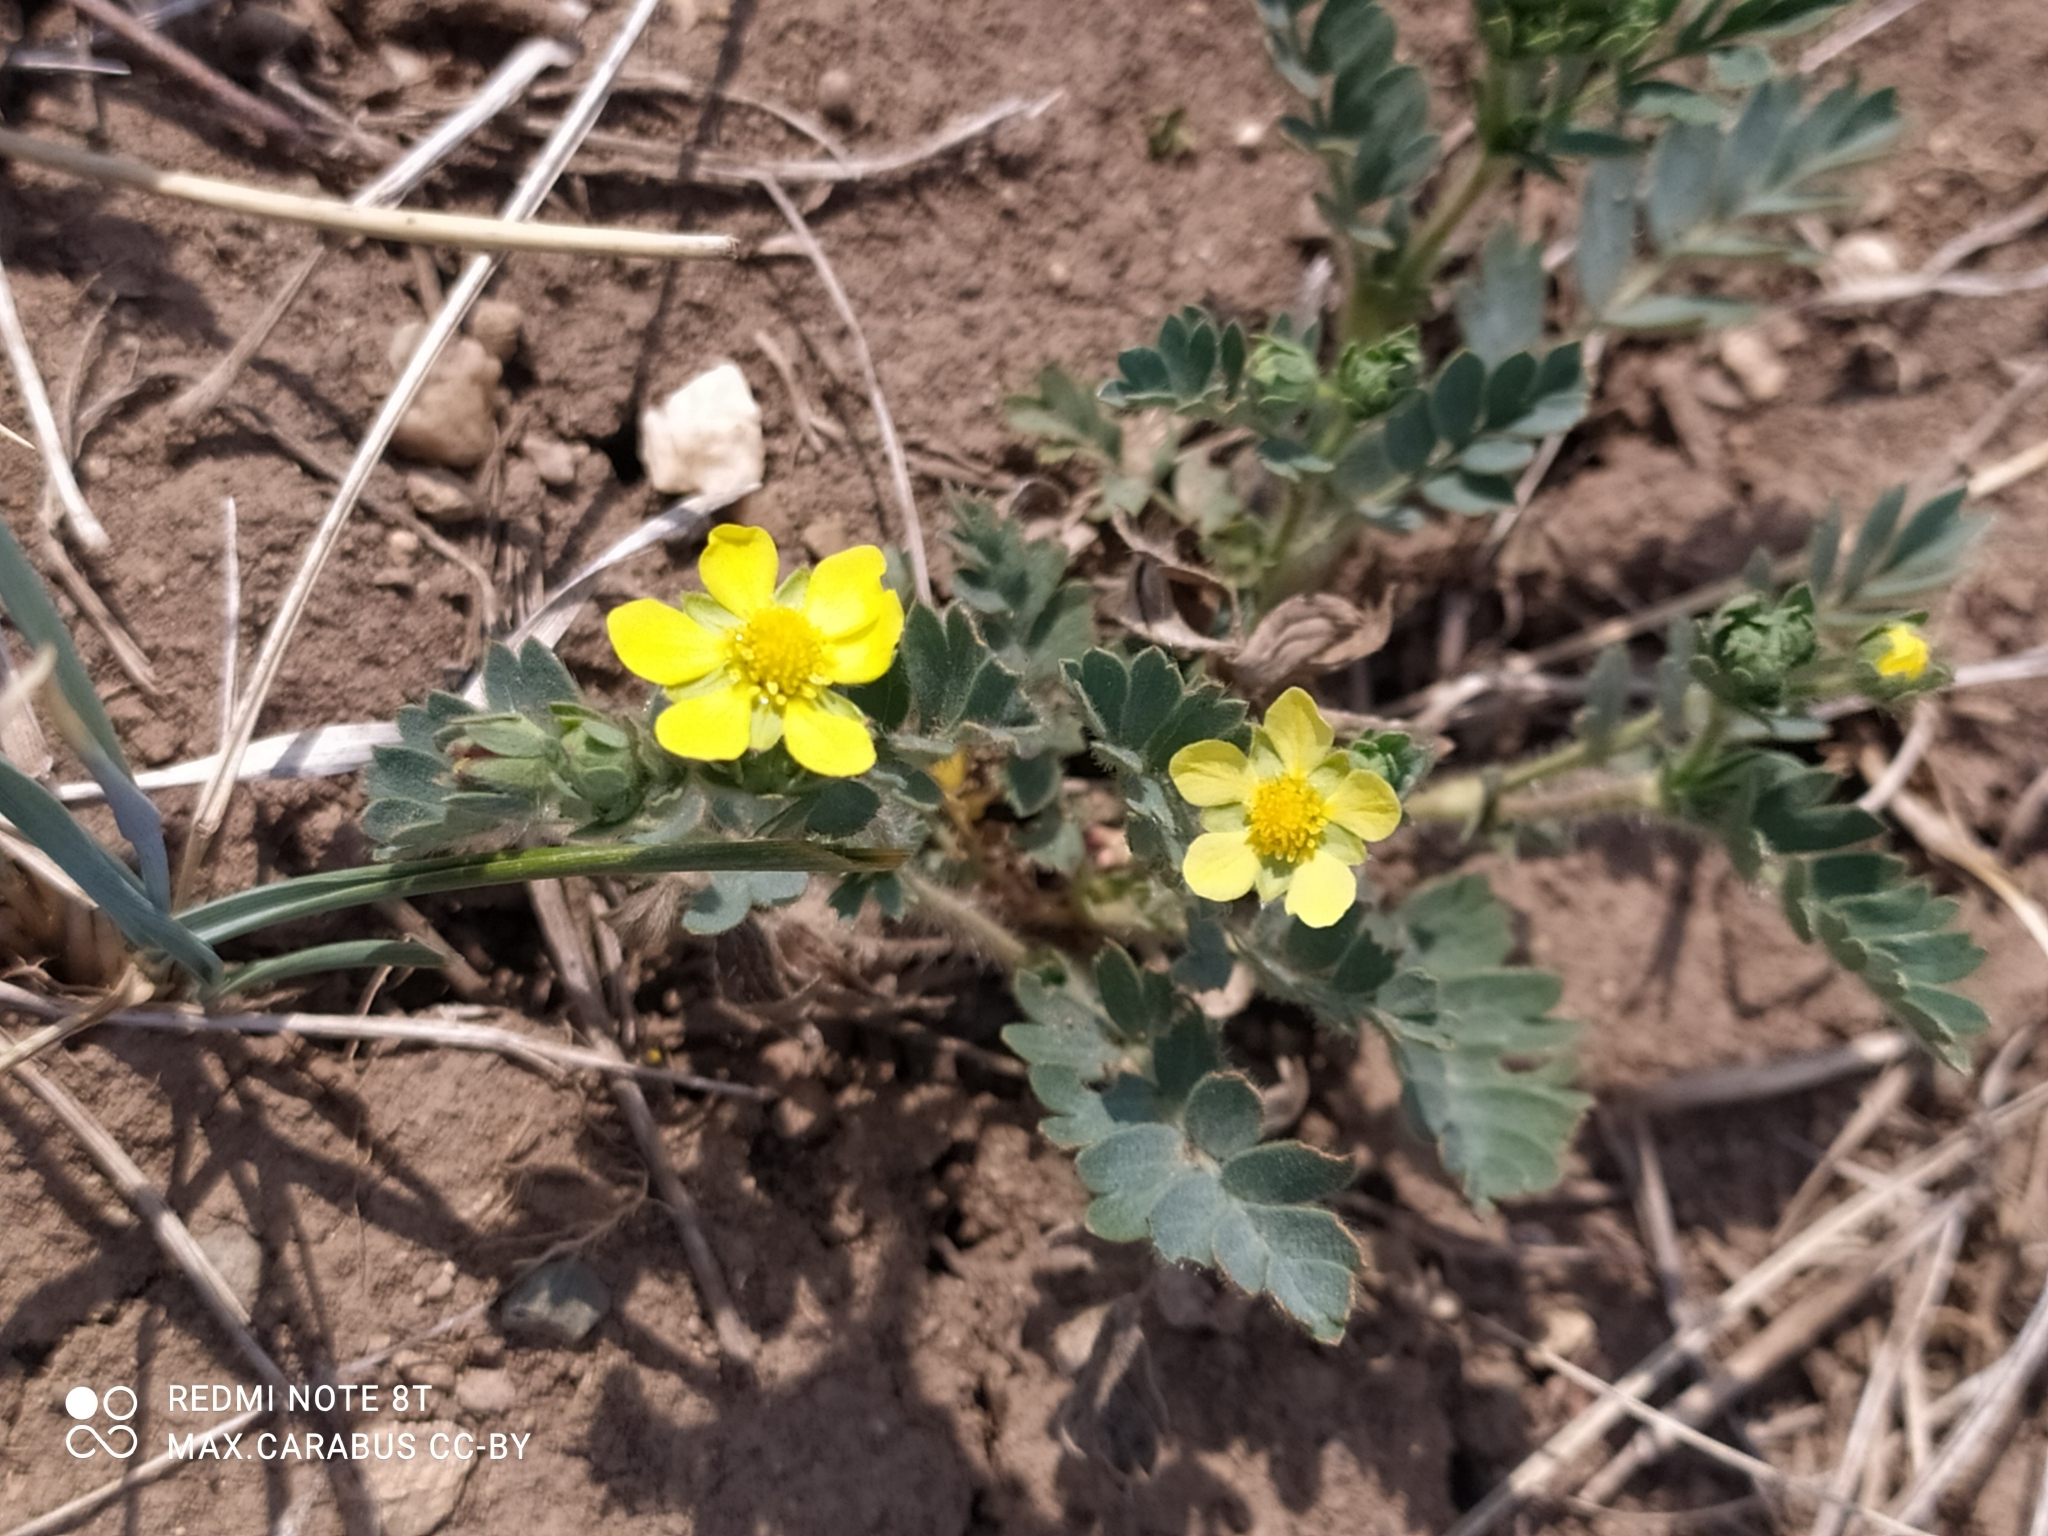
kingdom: Plantae
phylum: Tracheophyta
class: Magnoliopsida
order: Rosales
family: Rosaceae
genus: Sibbaldianthe
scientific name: Sibbaldianthe bifurca
